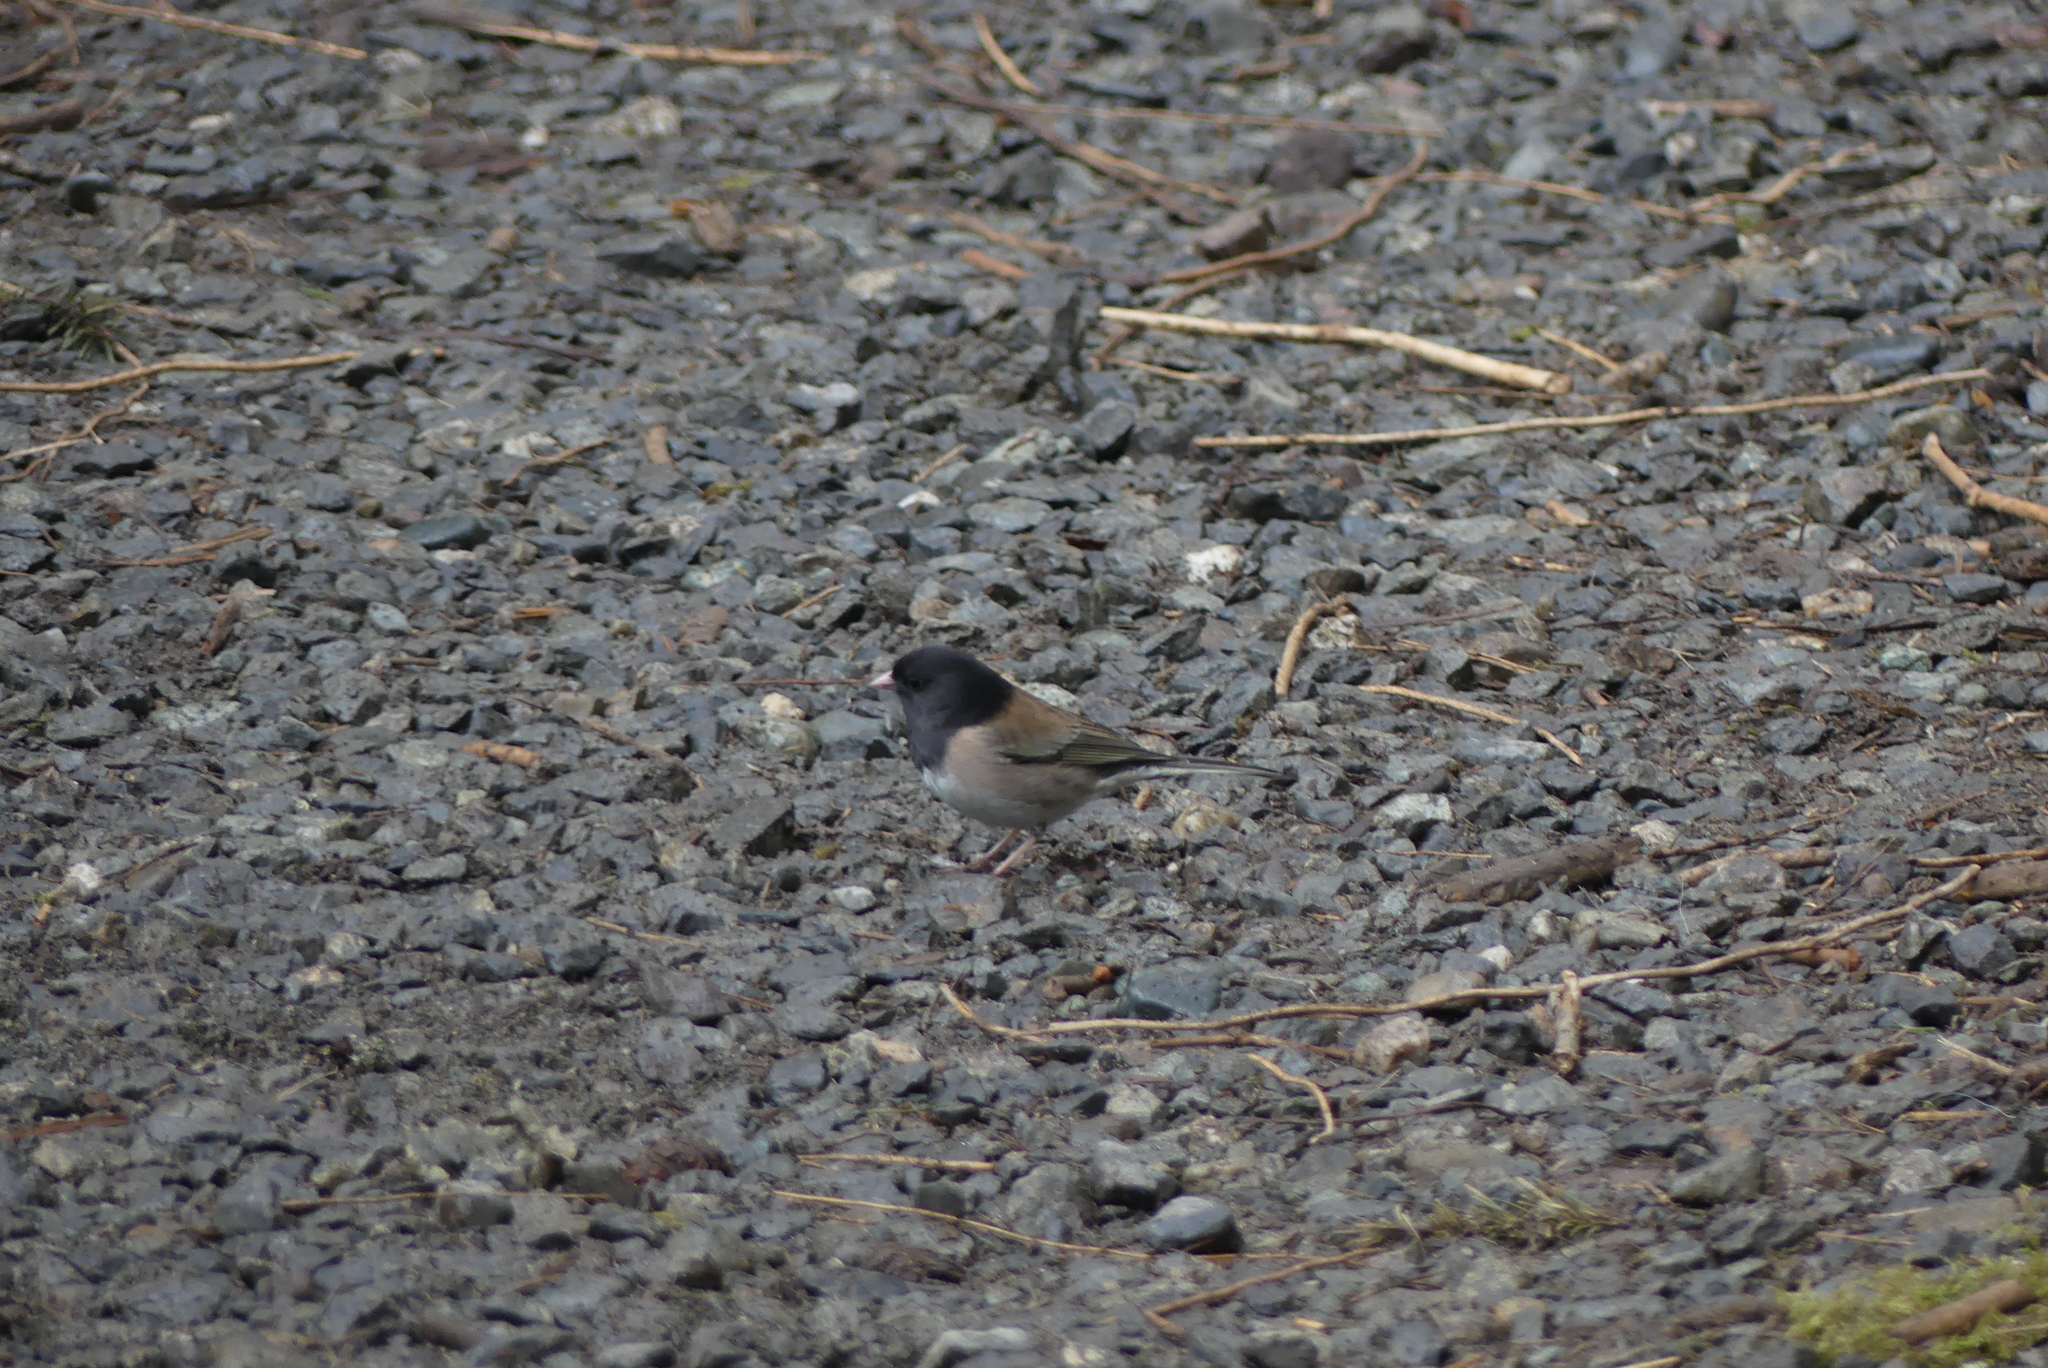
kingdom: Animalia
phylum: Chordata
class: Aves
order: Passeriformes
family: Passerellidae
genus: Junco
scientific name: Junco hyemalis
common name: Dark-eyed junco
